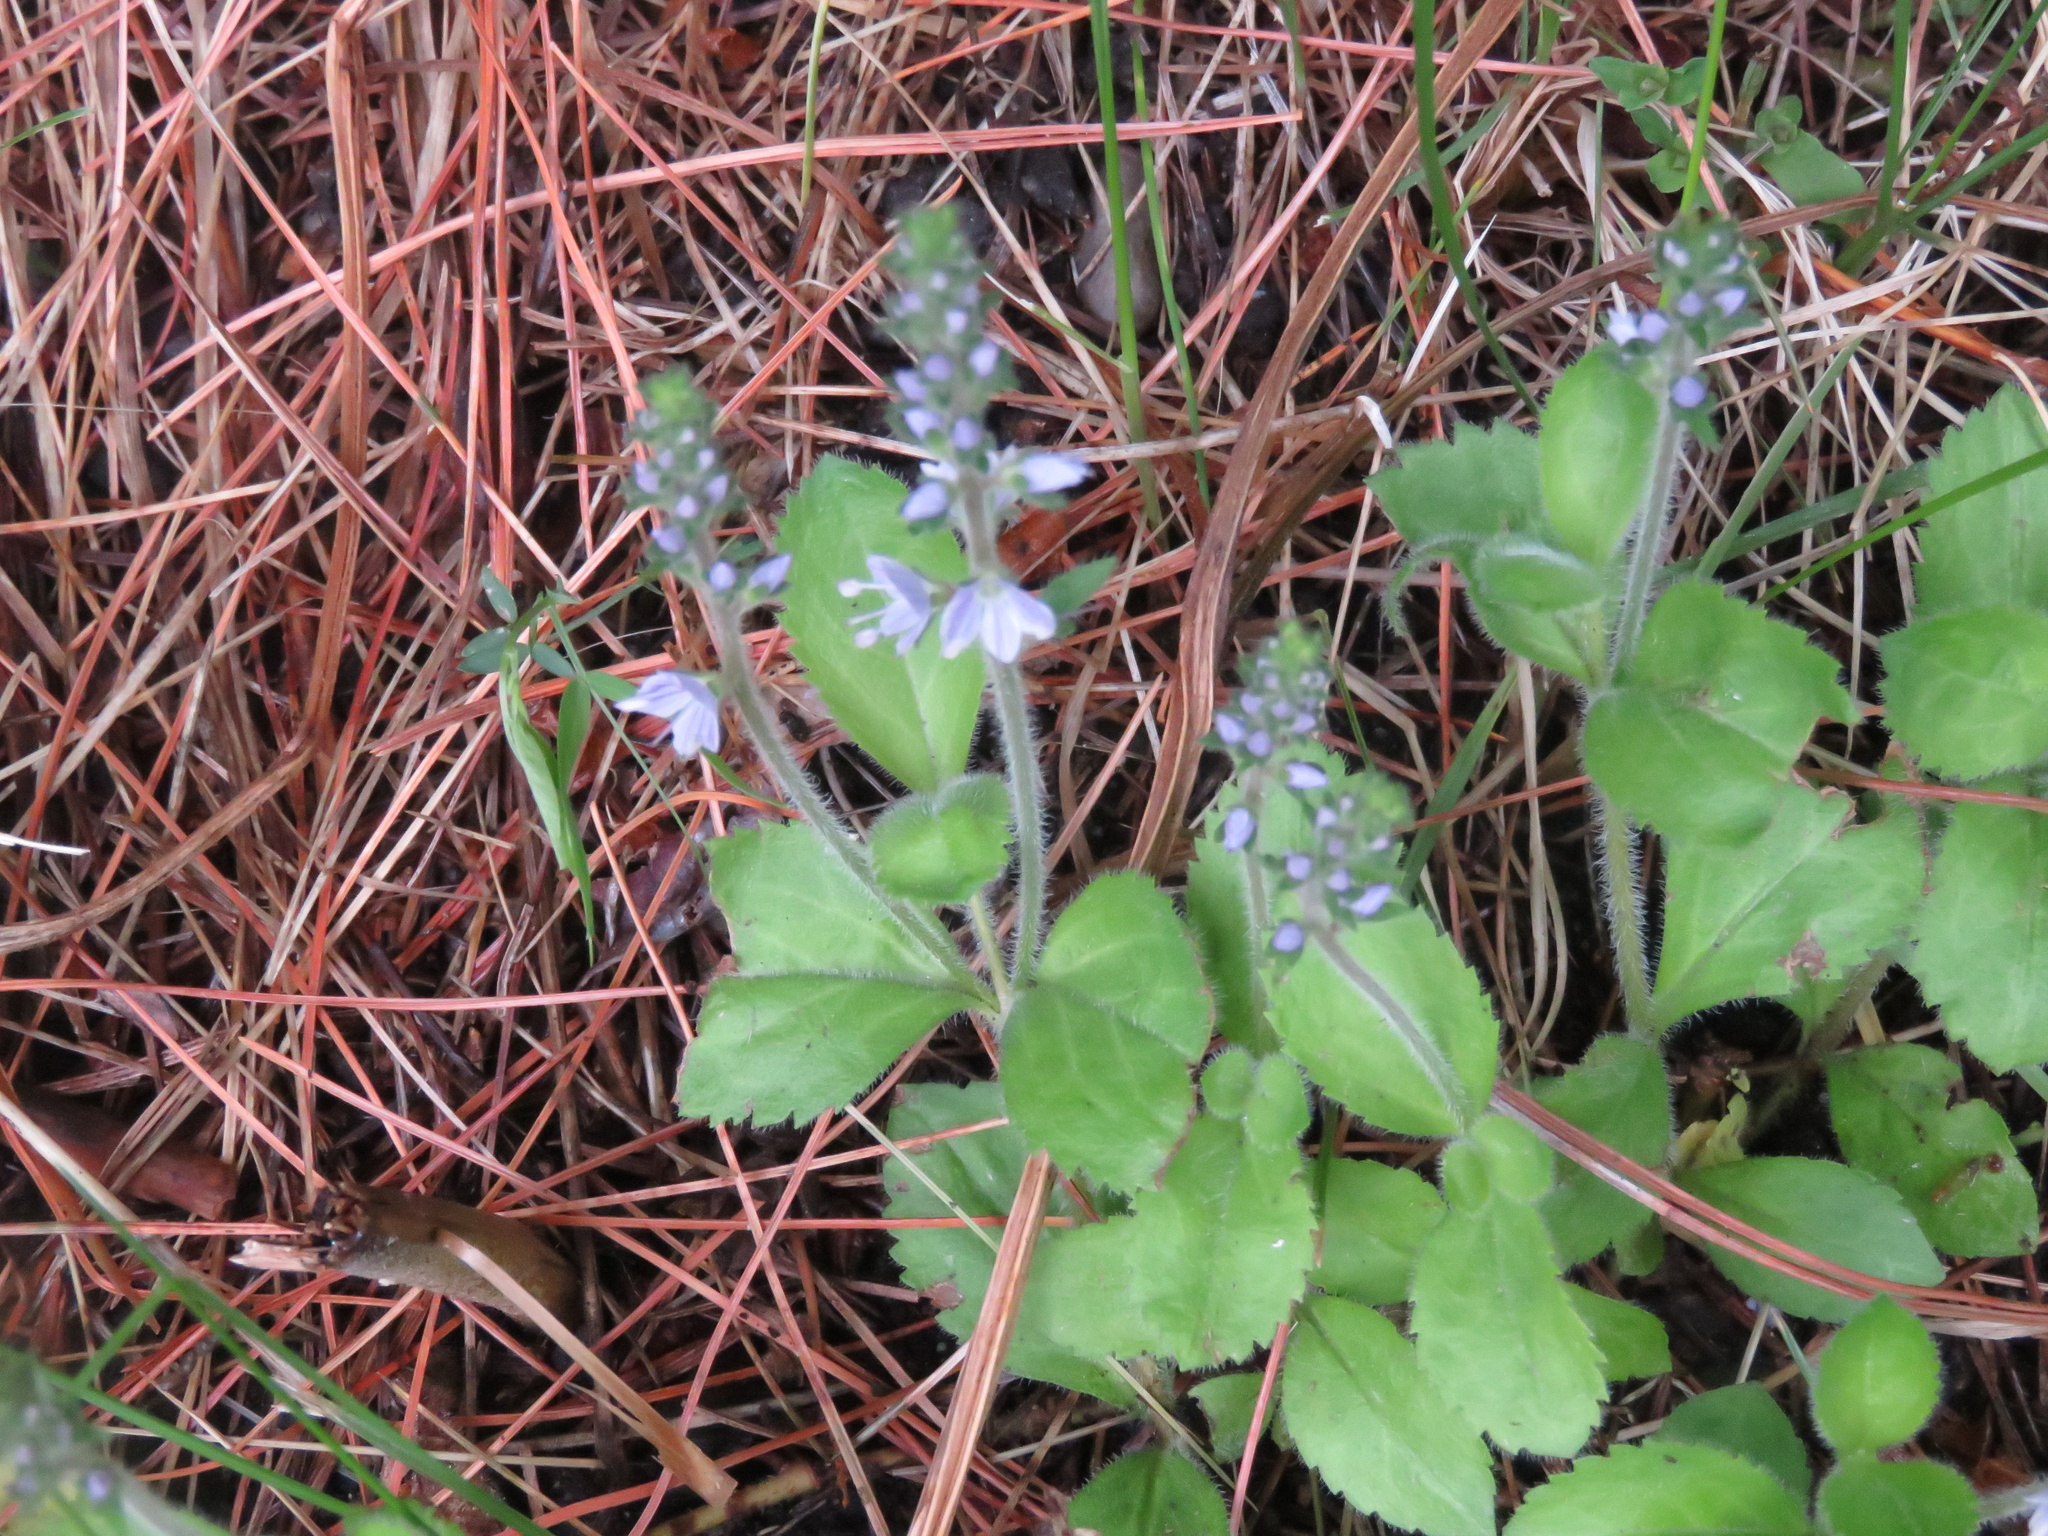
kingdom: Plantae
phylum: Tracheophyta
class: Magnoliopsida
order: Lamiales
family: Plantaginaceae
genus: Veronica
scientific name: Veronica officinalis
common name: Common speedwell
